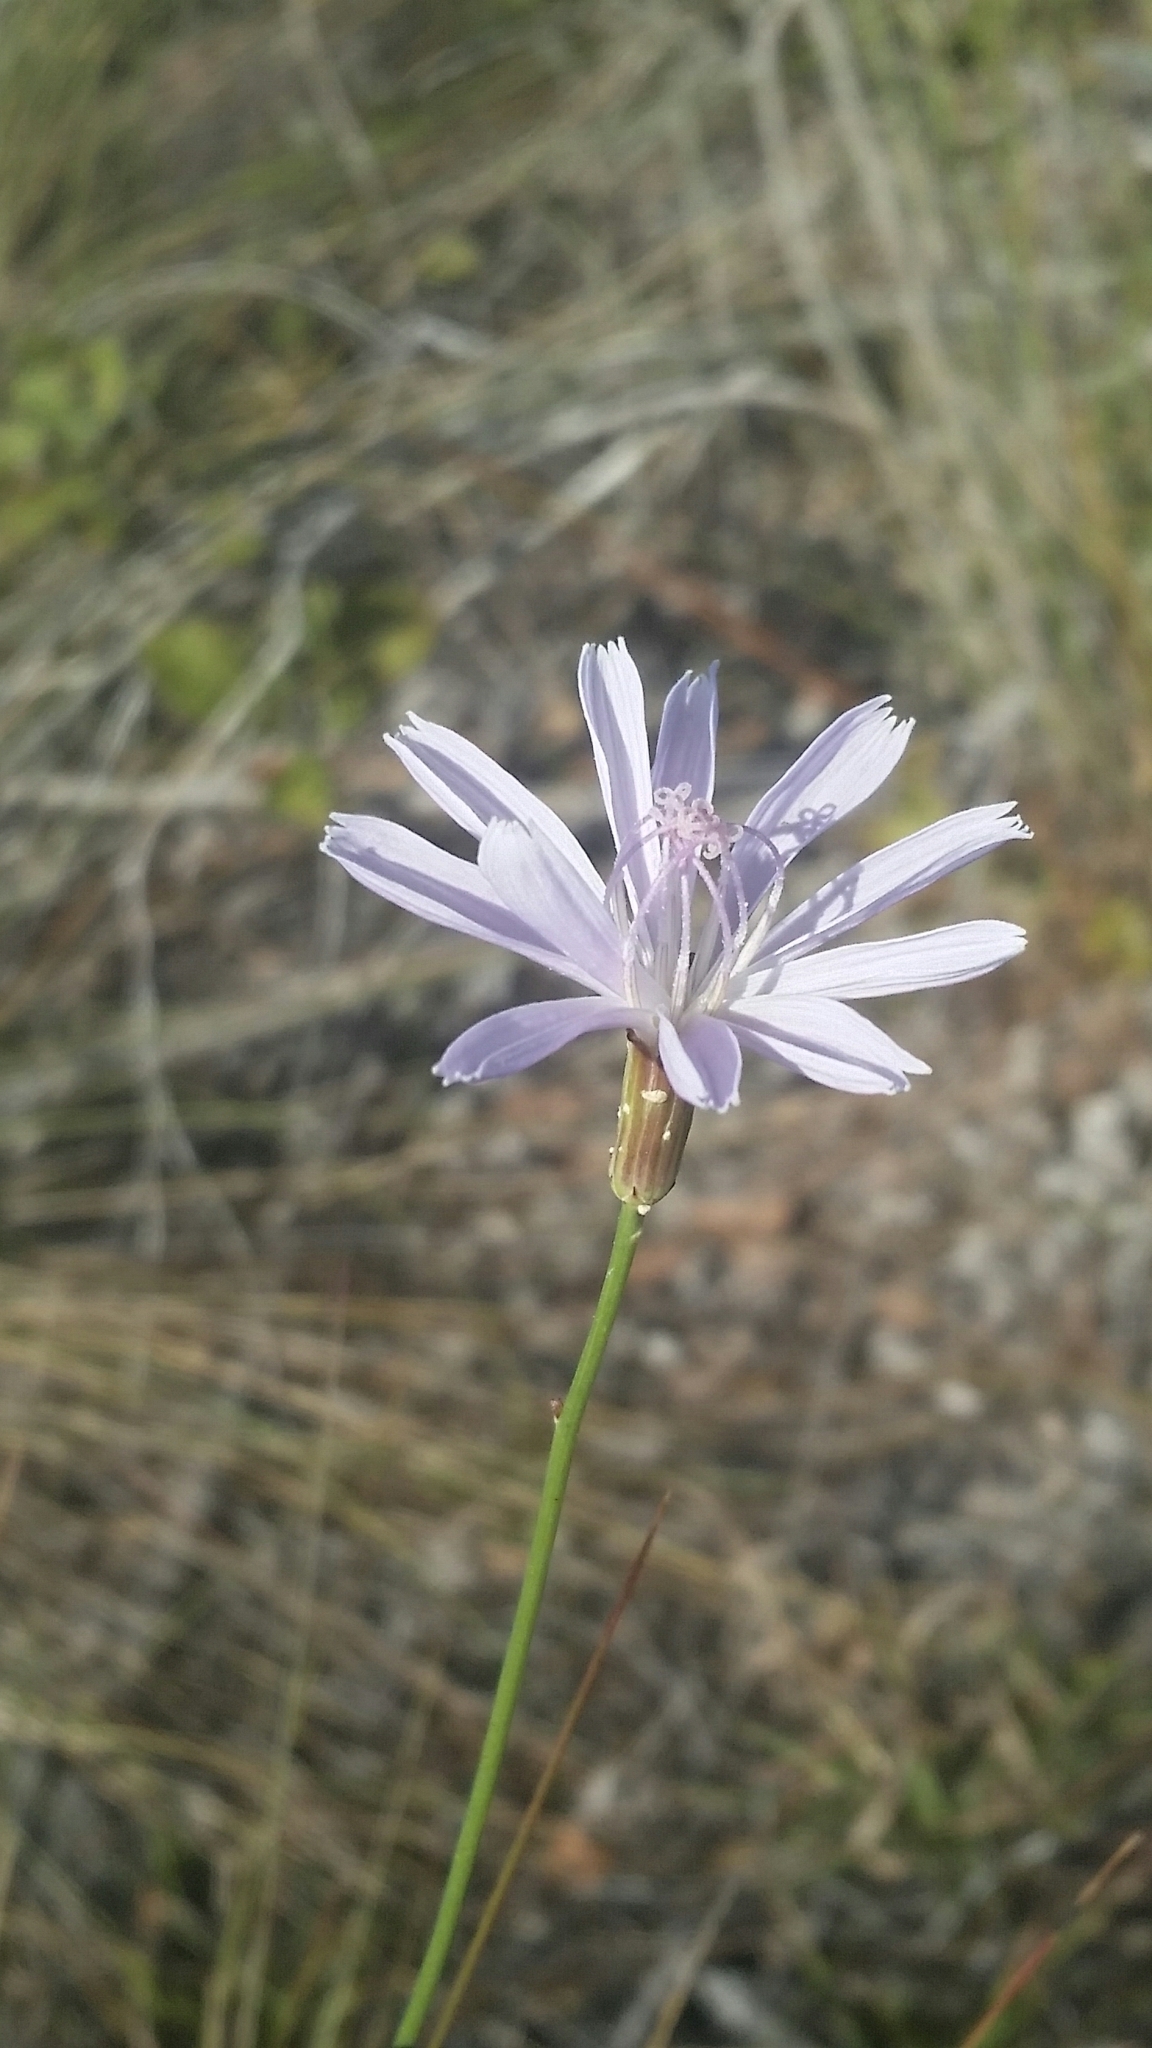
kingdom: Plantae
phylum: Tracheophyta
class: Magnoliopsida
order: Asterales
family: Asteraceae
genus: Lygodesmia
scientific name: Lygodesmia aphylla
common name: Rose-rush
